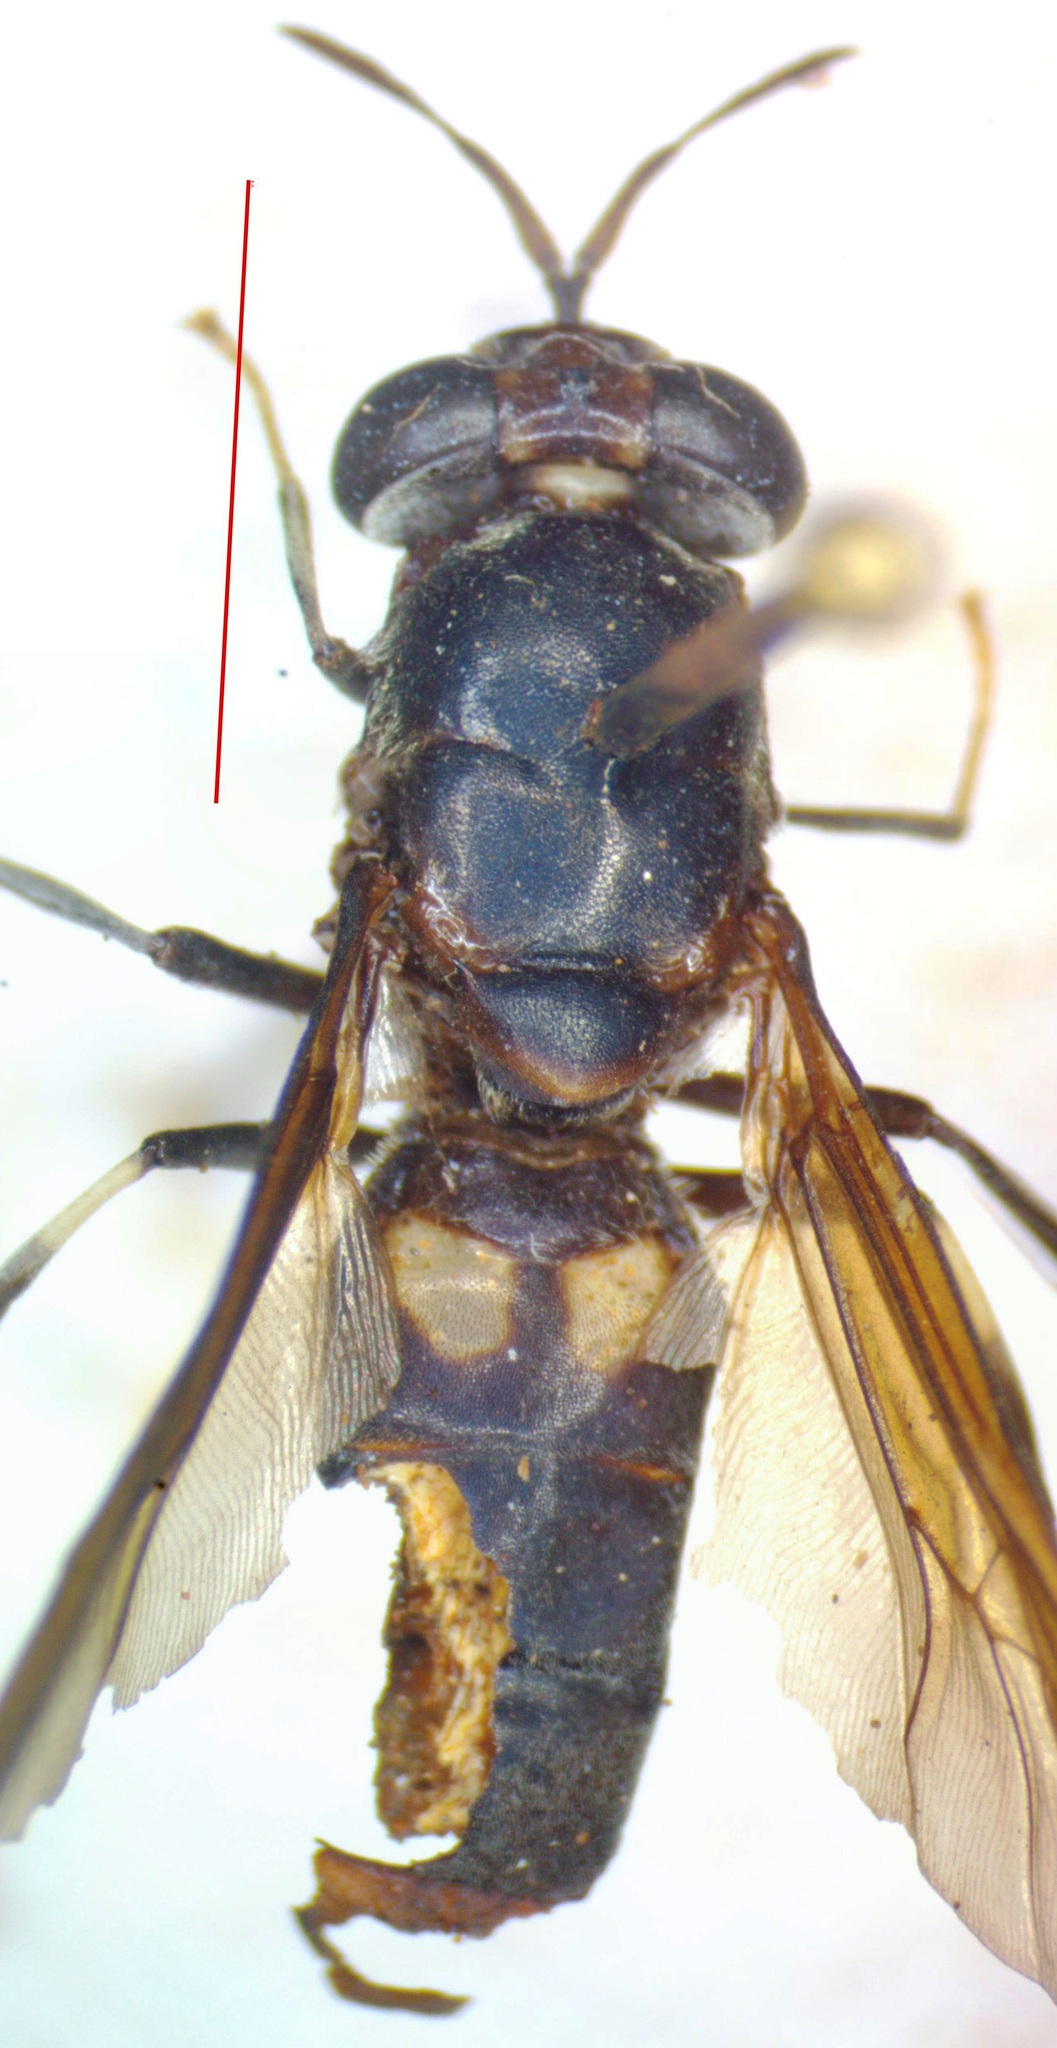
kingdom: Animalia
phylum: Arthropoda
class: Insecta
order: Diptera
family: Stratiomyidae
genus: Hermetia
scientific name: Hermetia illucens
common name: Black soldier fly
